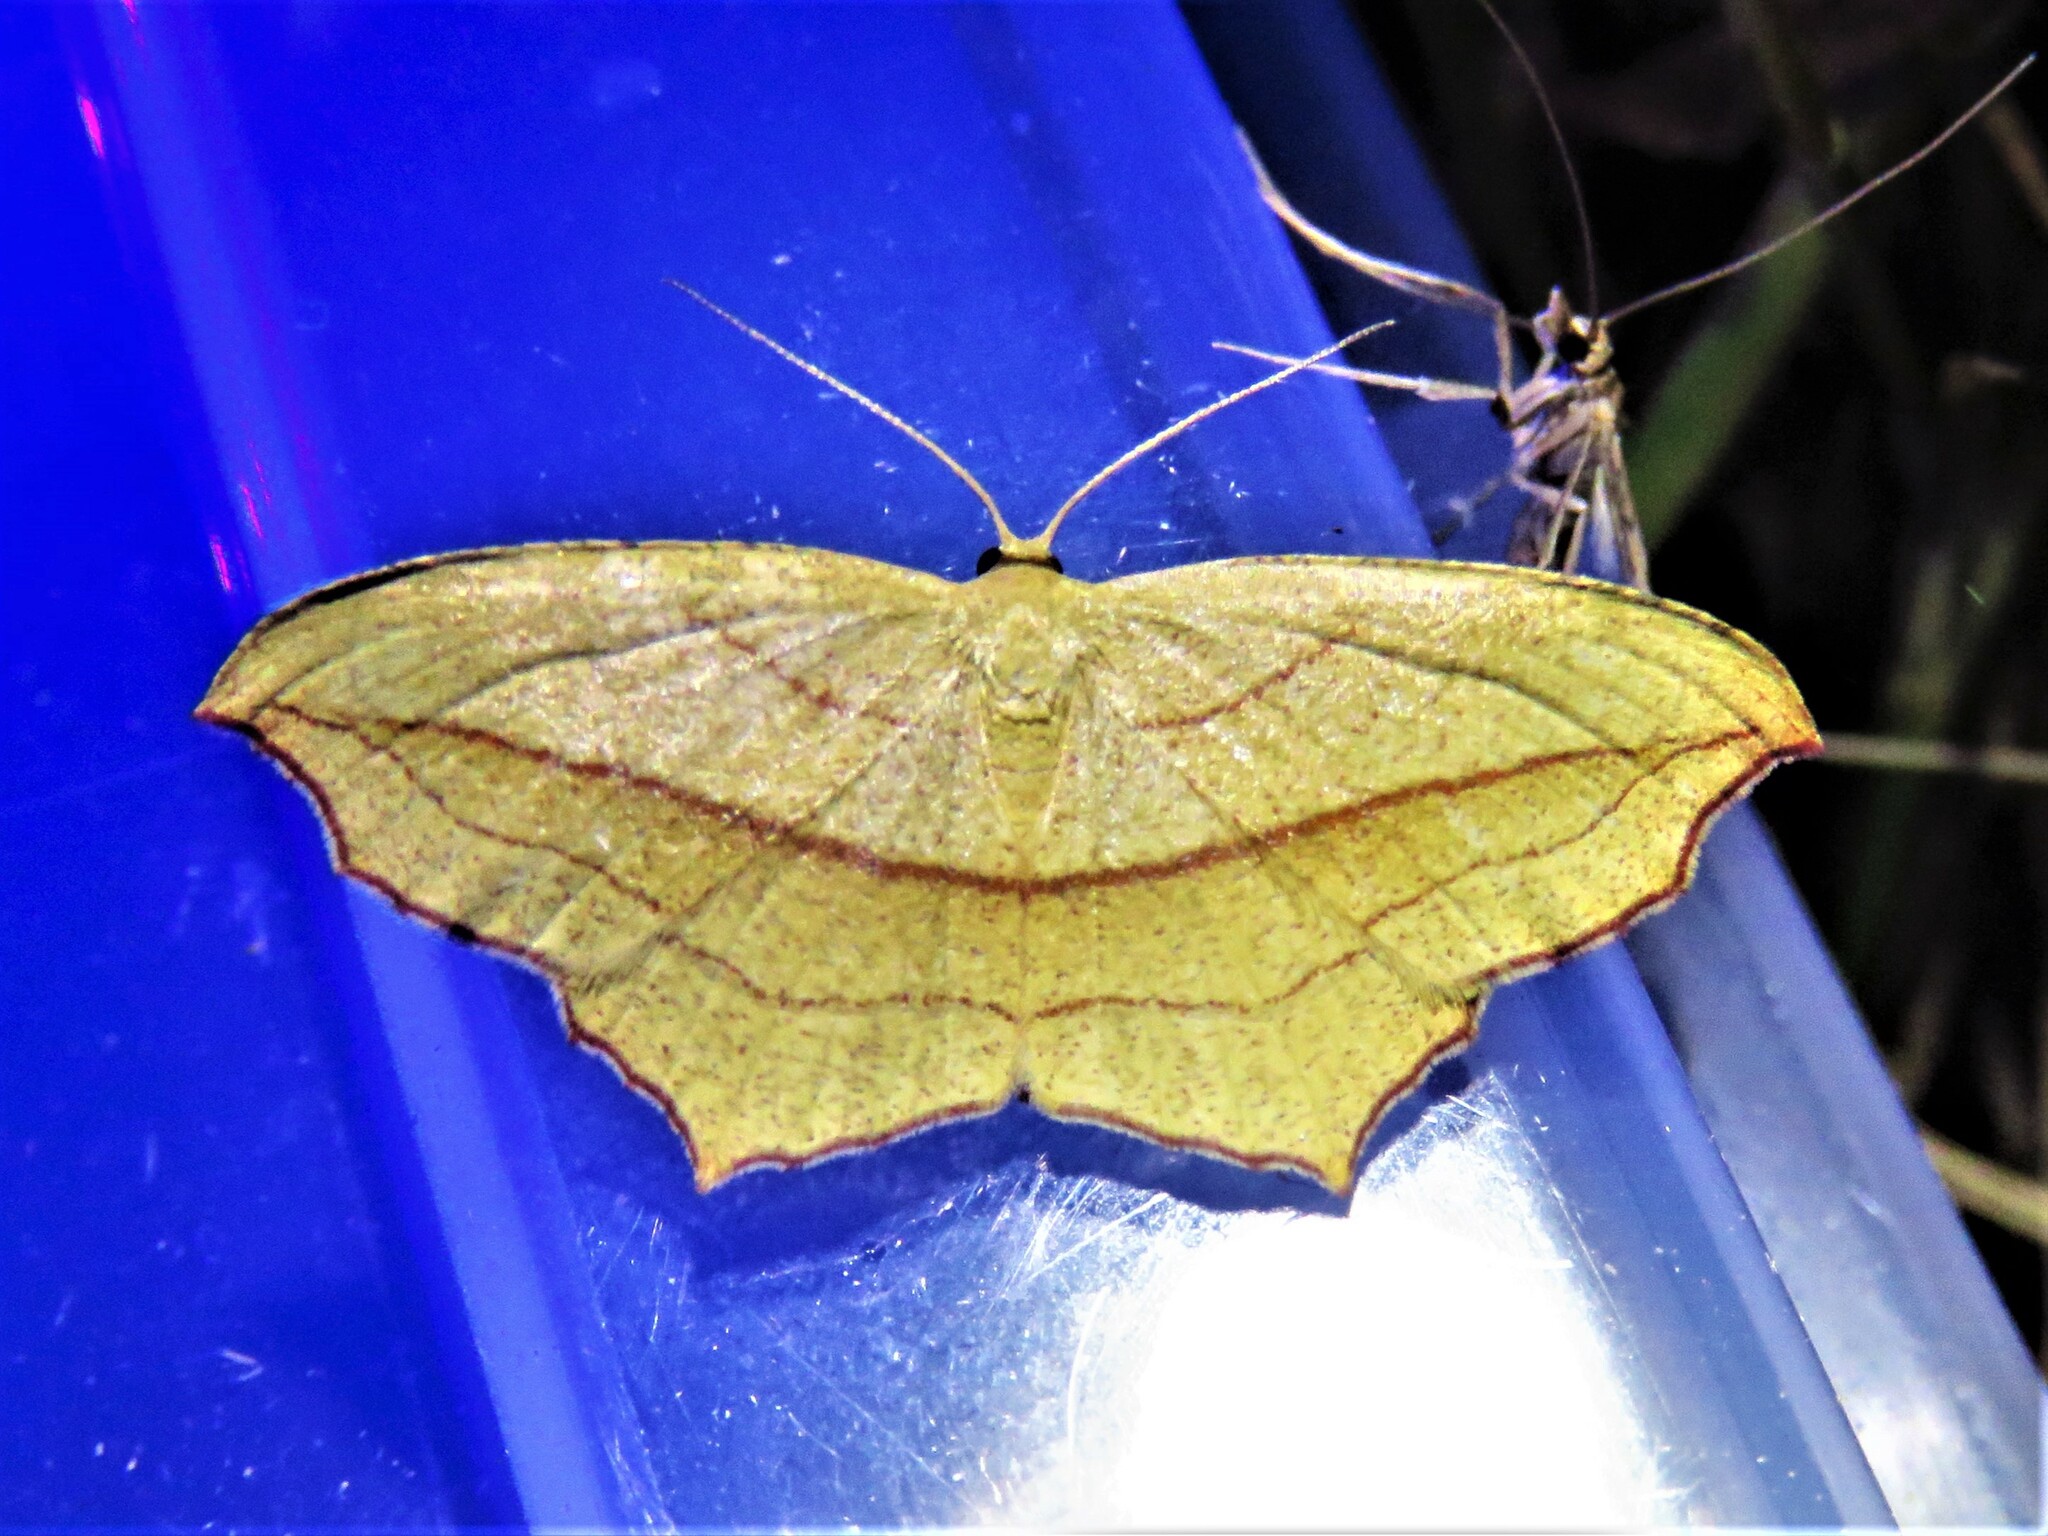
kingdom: Animalia
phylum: Arthropoda
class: Insecta
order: Lepidoptera
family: Geometridae
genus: Timandra
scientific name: Timandra amaturaria
